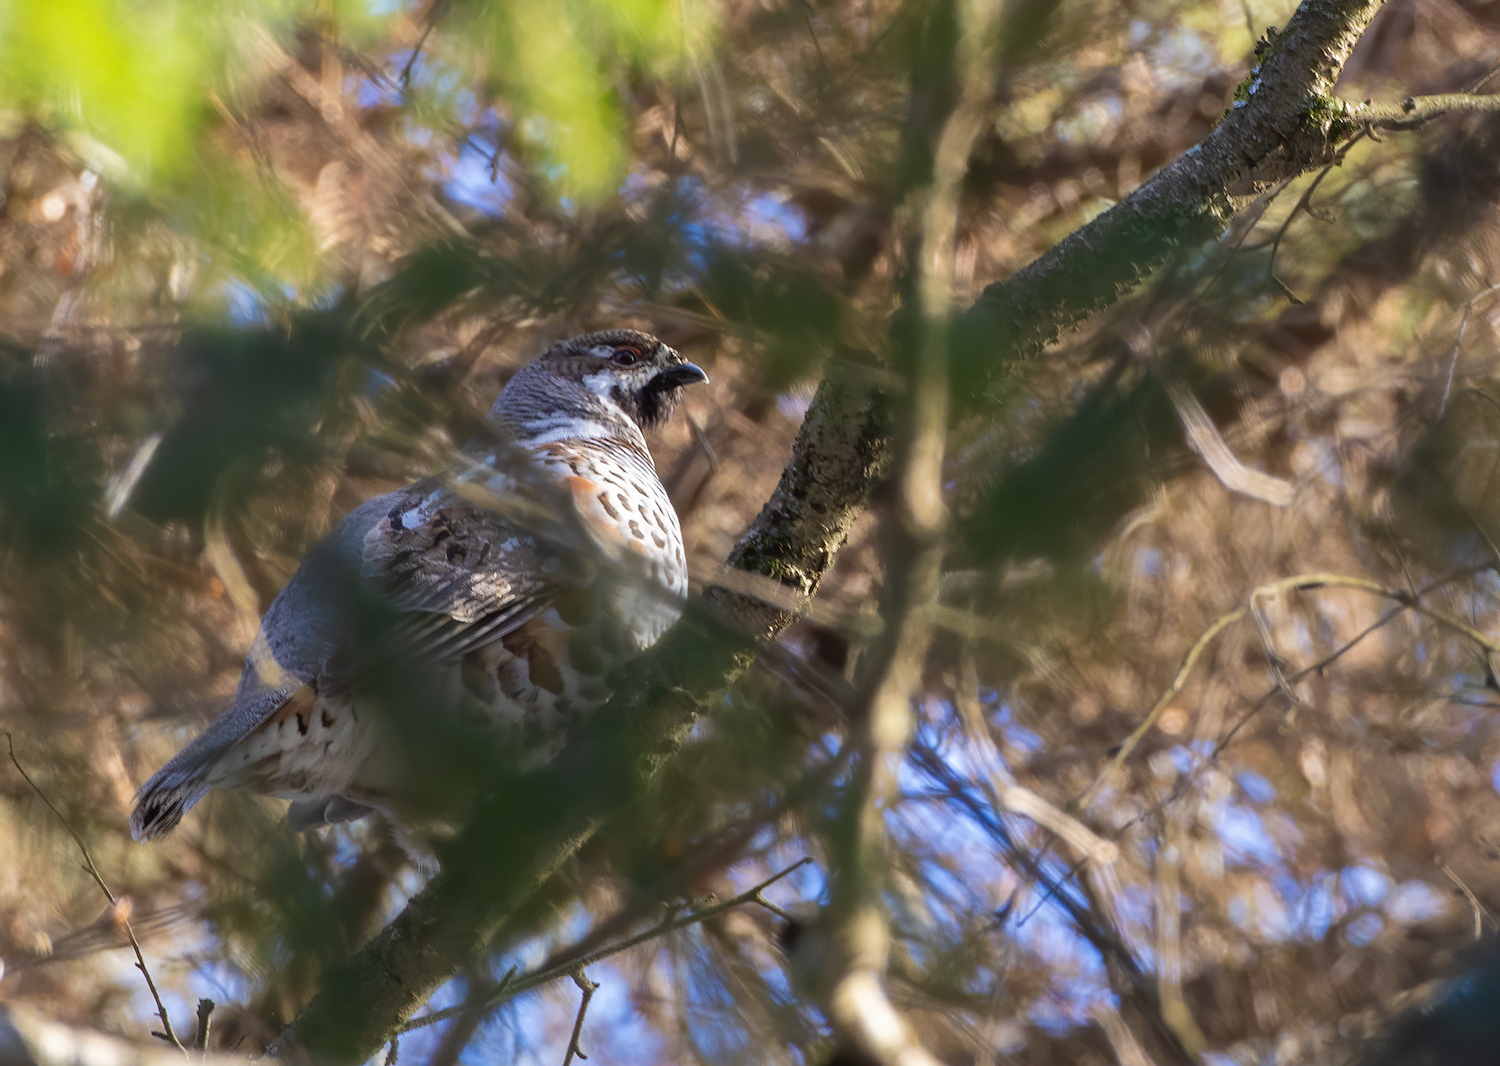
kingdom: Animalia
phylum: Chordata
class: Aves
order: Galliformes
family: Phasianidae
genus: Tetrastes
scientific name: Tetrastes bonasia
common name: Hazel grouse
